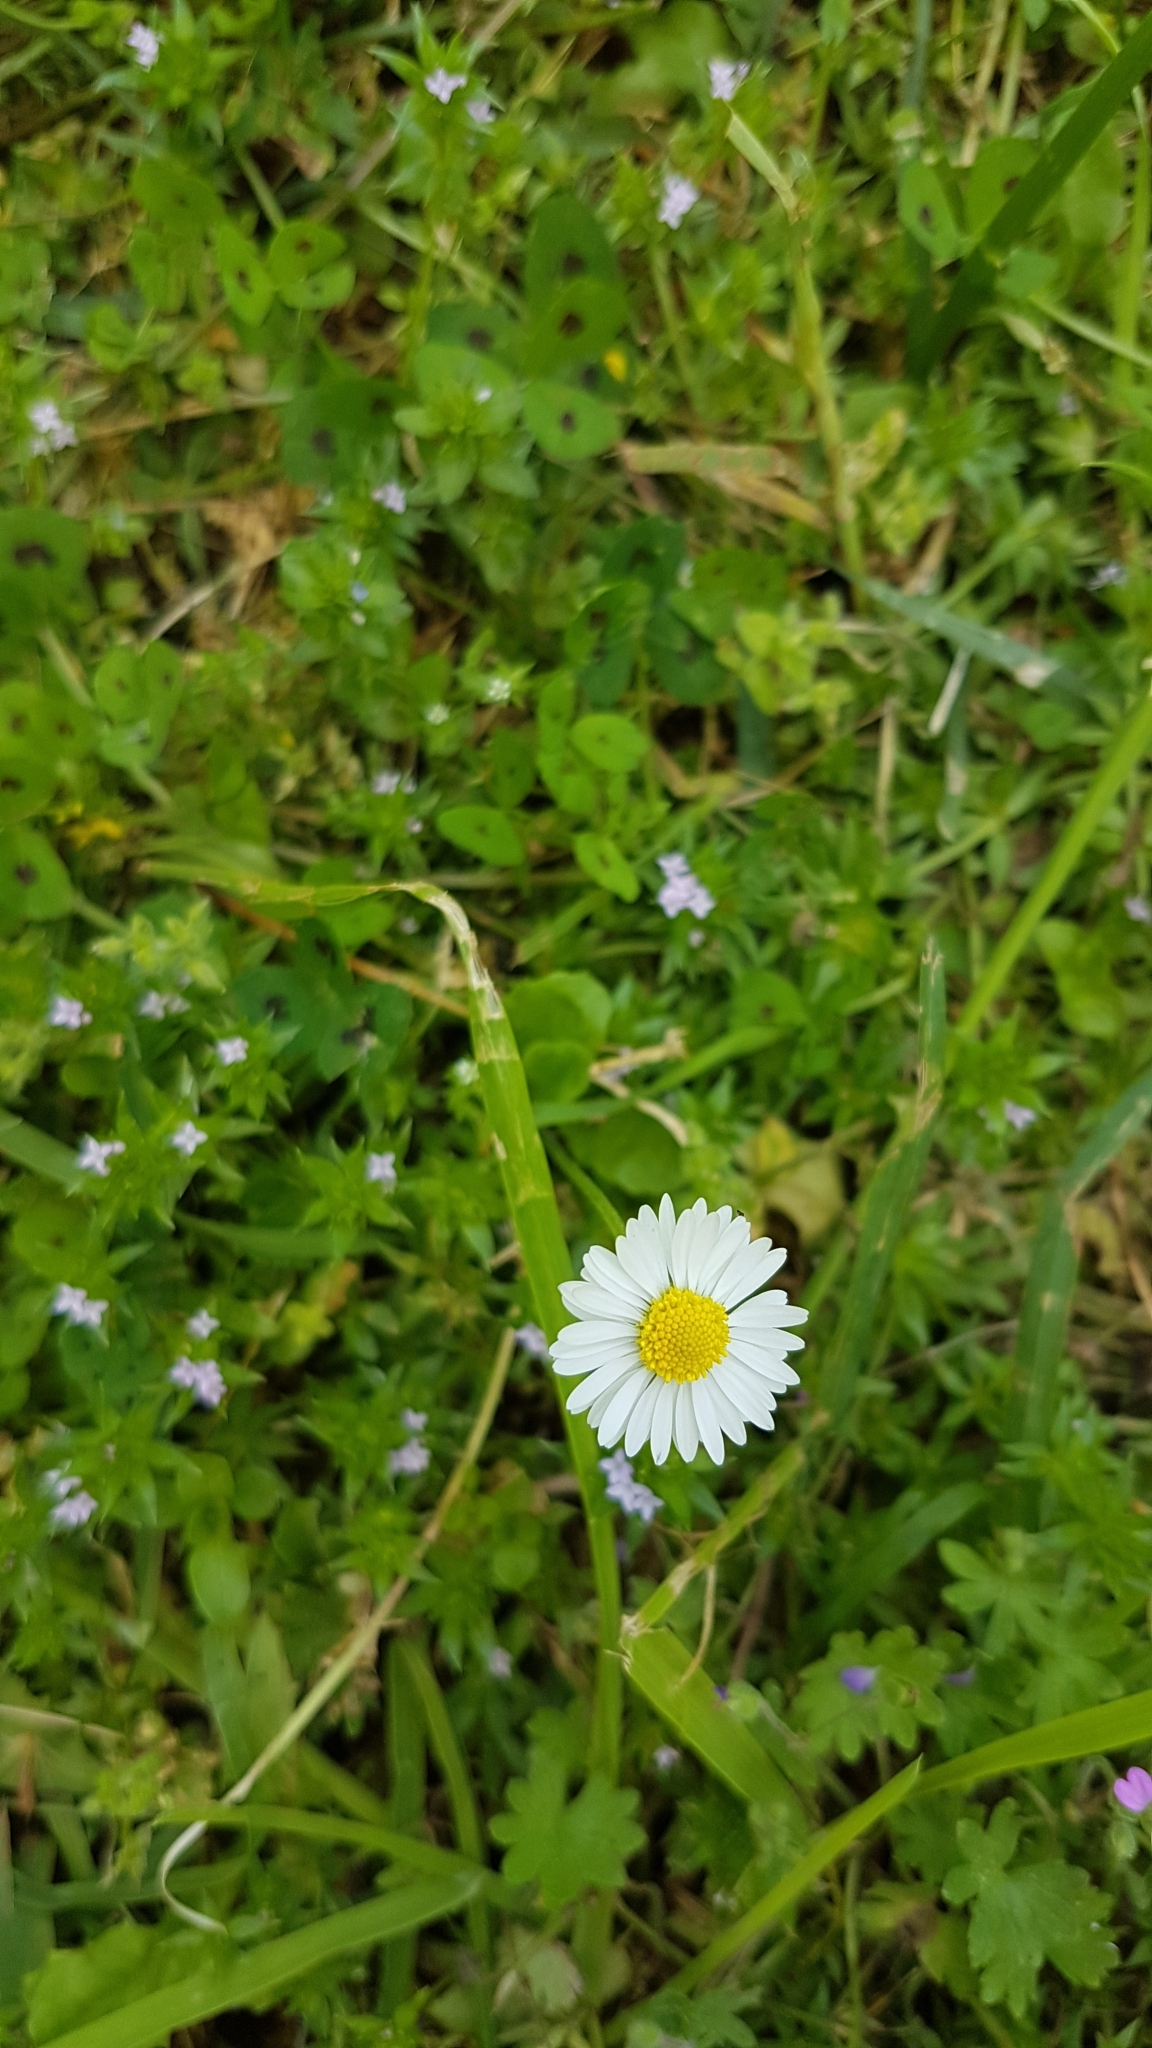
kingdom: Plantae
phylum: Tracheophyta
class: Magnoliopsida
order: Asterales
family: Asteraceae
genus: Bellis
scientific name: Bellis perennis
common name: Lawndaisy
